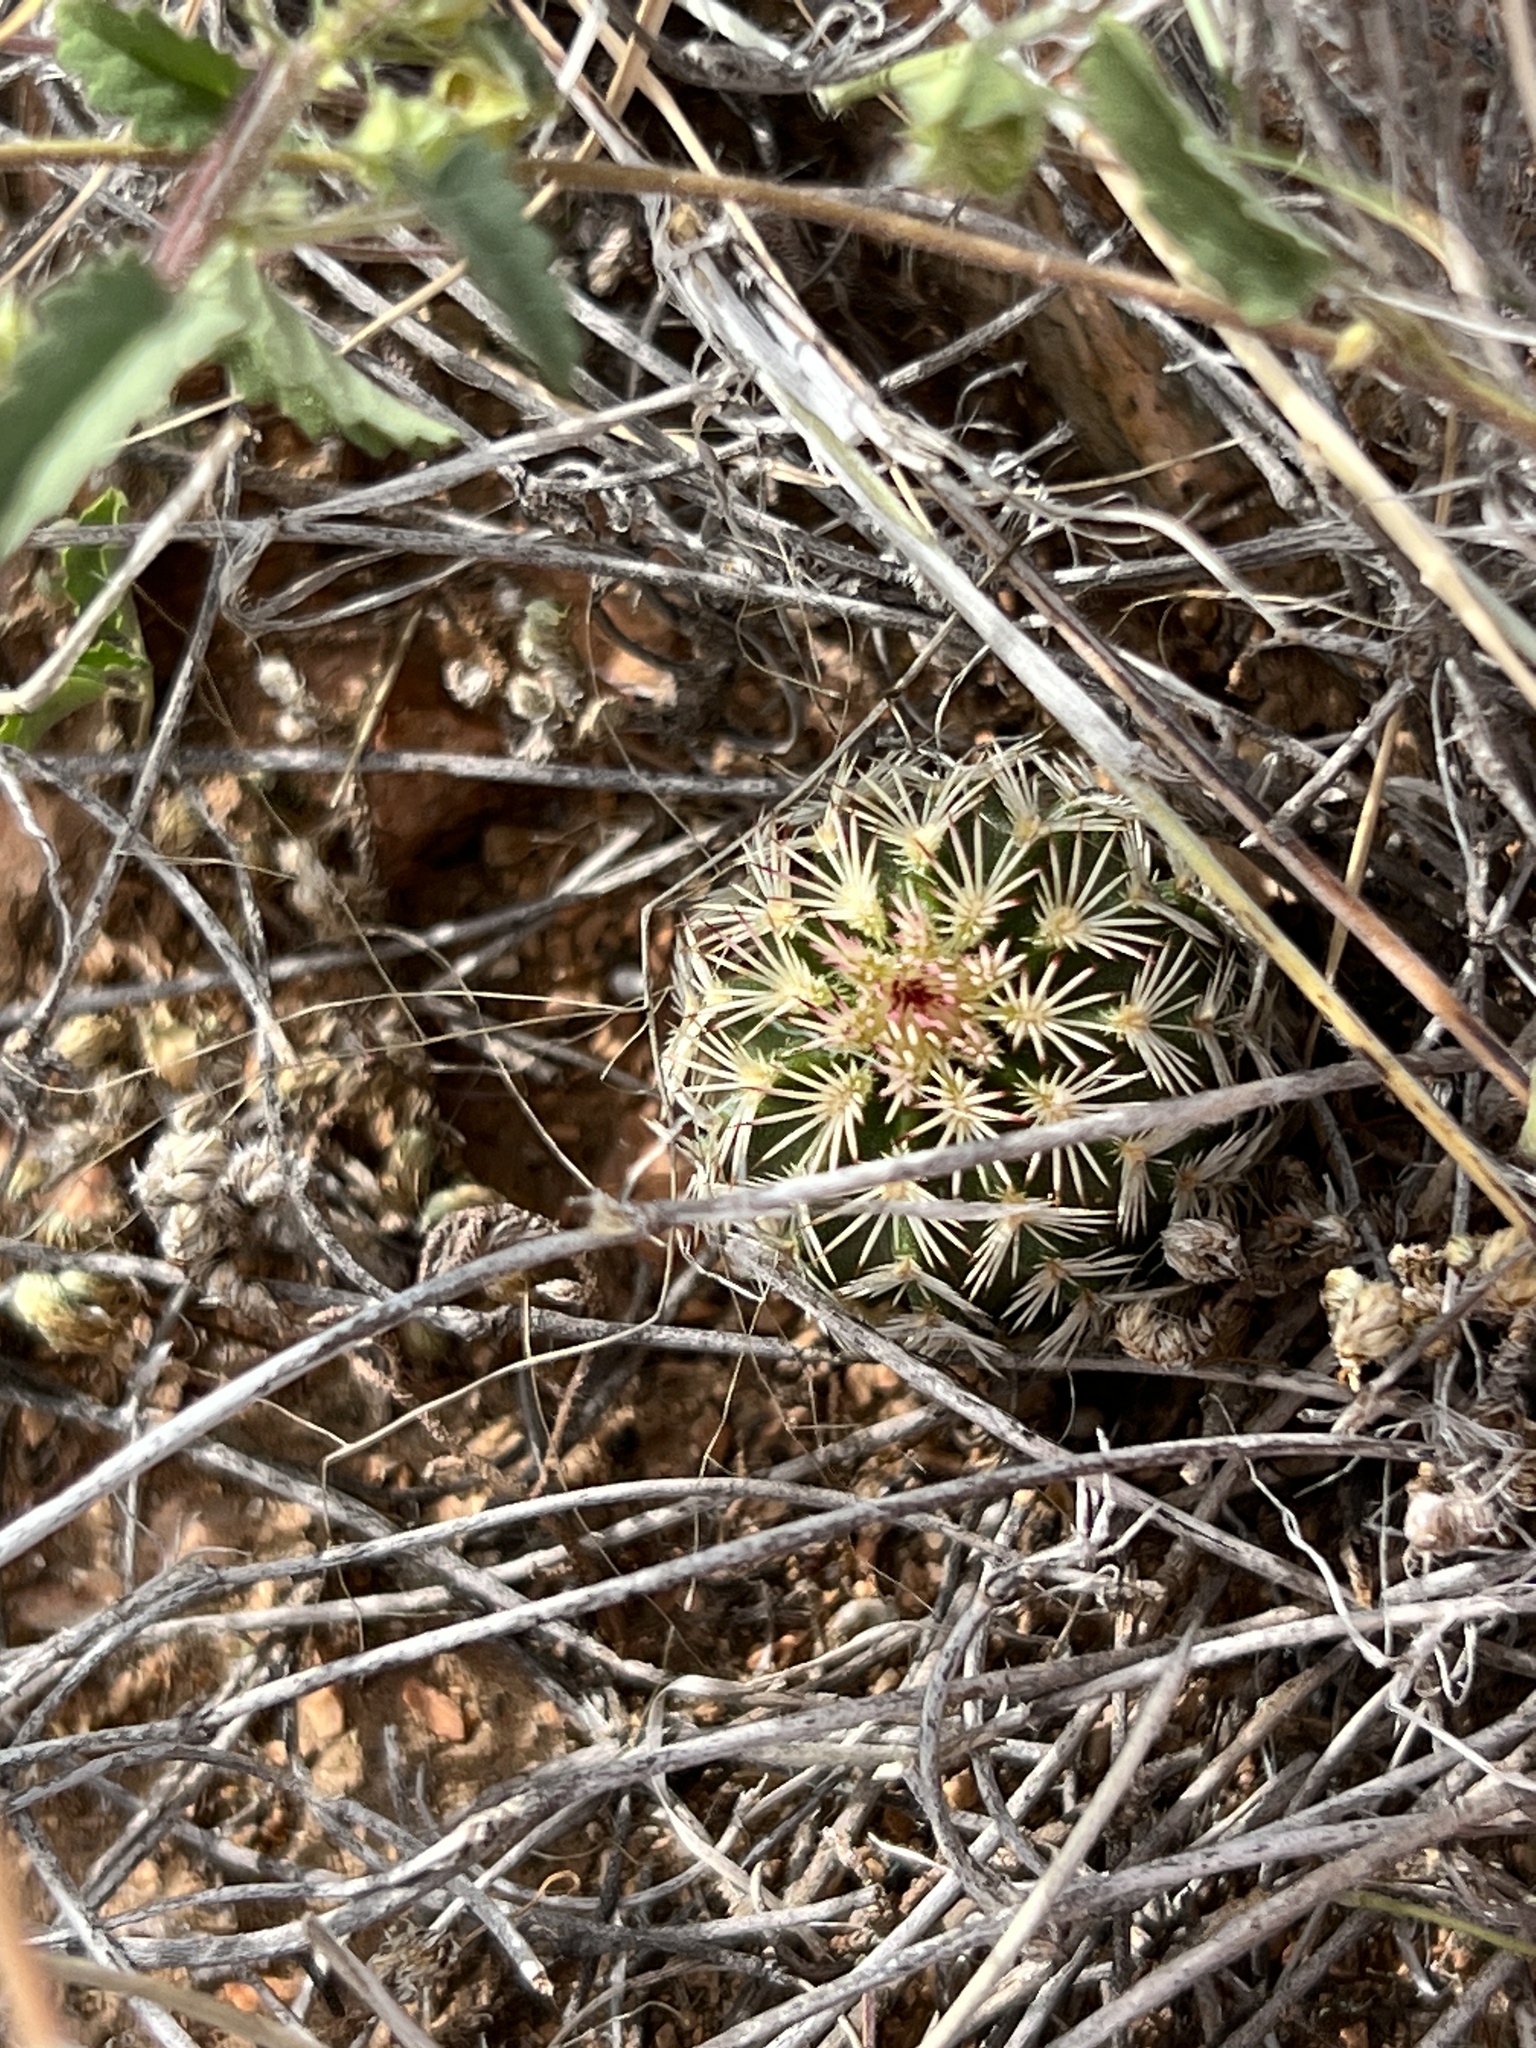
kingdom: Plantae
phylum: Tracheophyta
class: Magnoliopsida
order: Caryophyllales
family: Cactaceae
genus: Echinocereus
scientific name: Echinocereus viridiflorus
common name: Nylon hedgehog cactus
